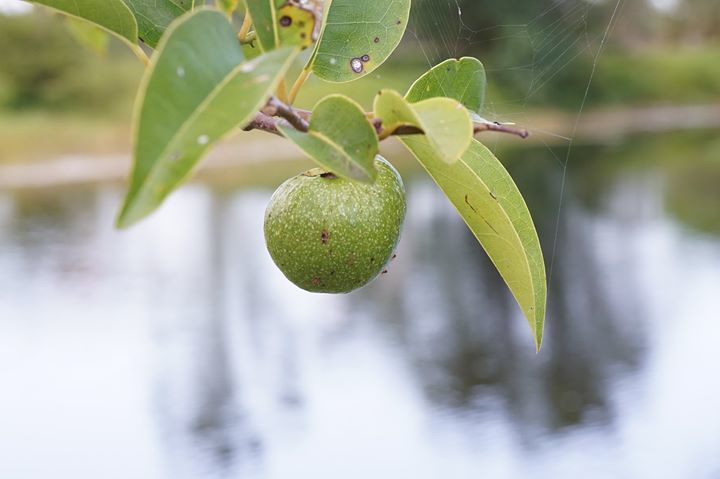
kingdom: Plantae
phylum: Tracheophyta
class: Magnoliopsida
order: Magnoliales
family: Annonaceae
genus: Annona
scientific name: Annona glabra
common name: Monkey apple
